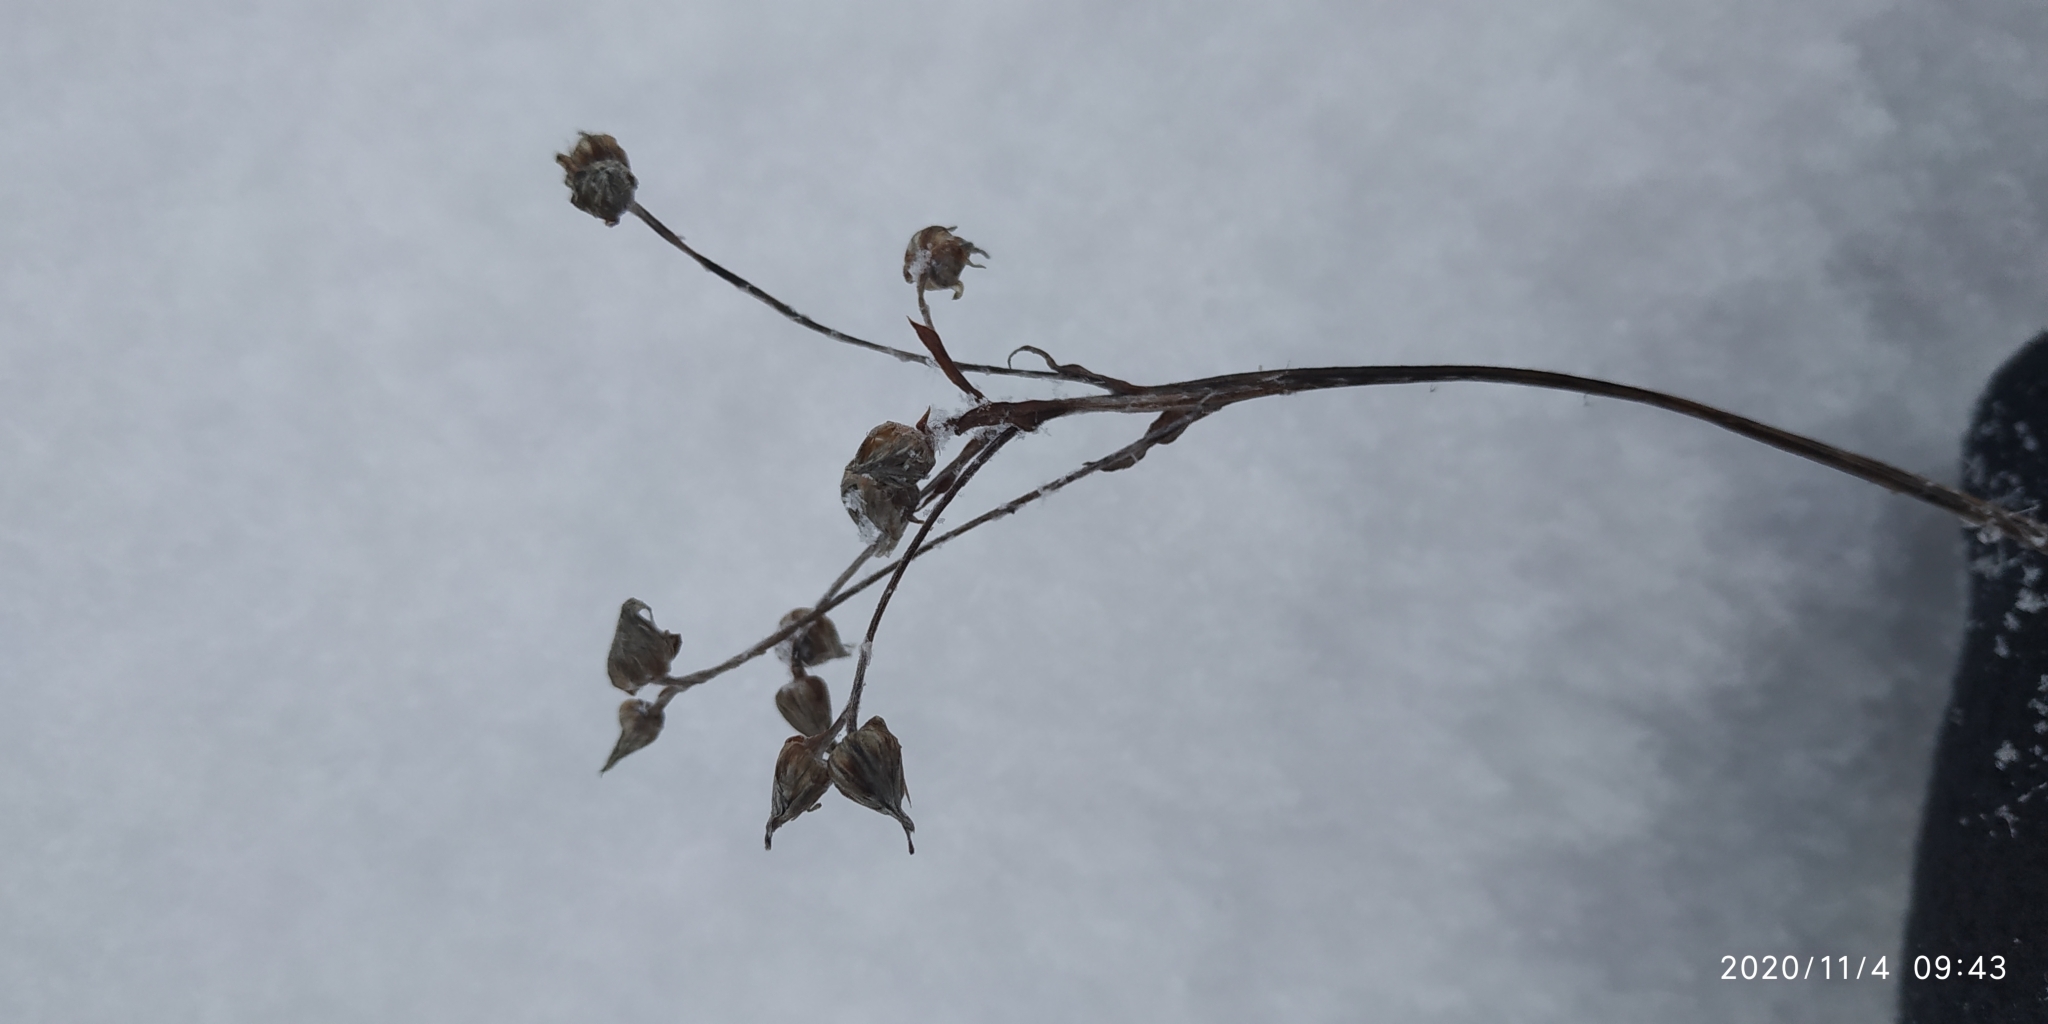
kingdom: Plantae
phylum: Tracheophyta
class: Magnoliopsida
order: Rosales
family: Rosaceae
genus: Comarum
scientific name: Comarum palustre
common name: Marsh cinquefoil
